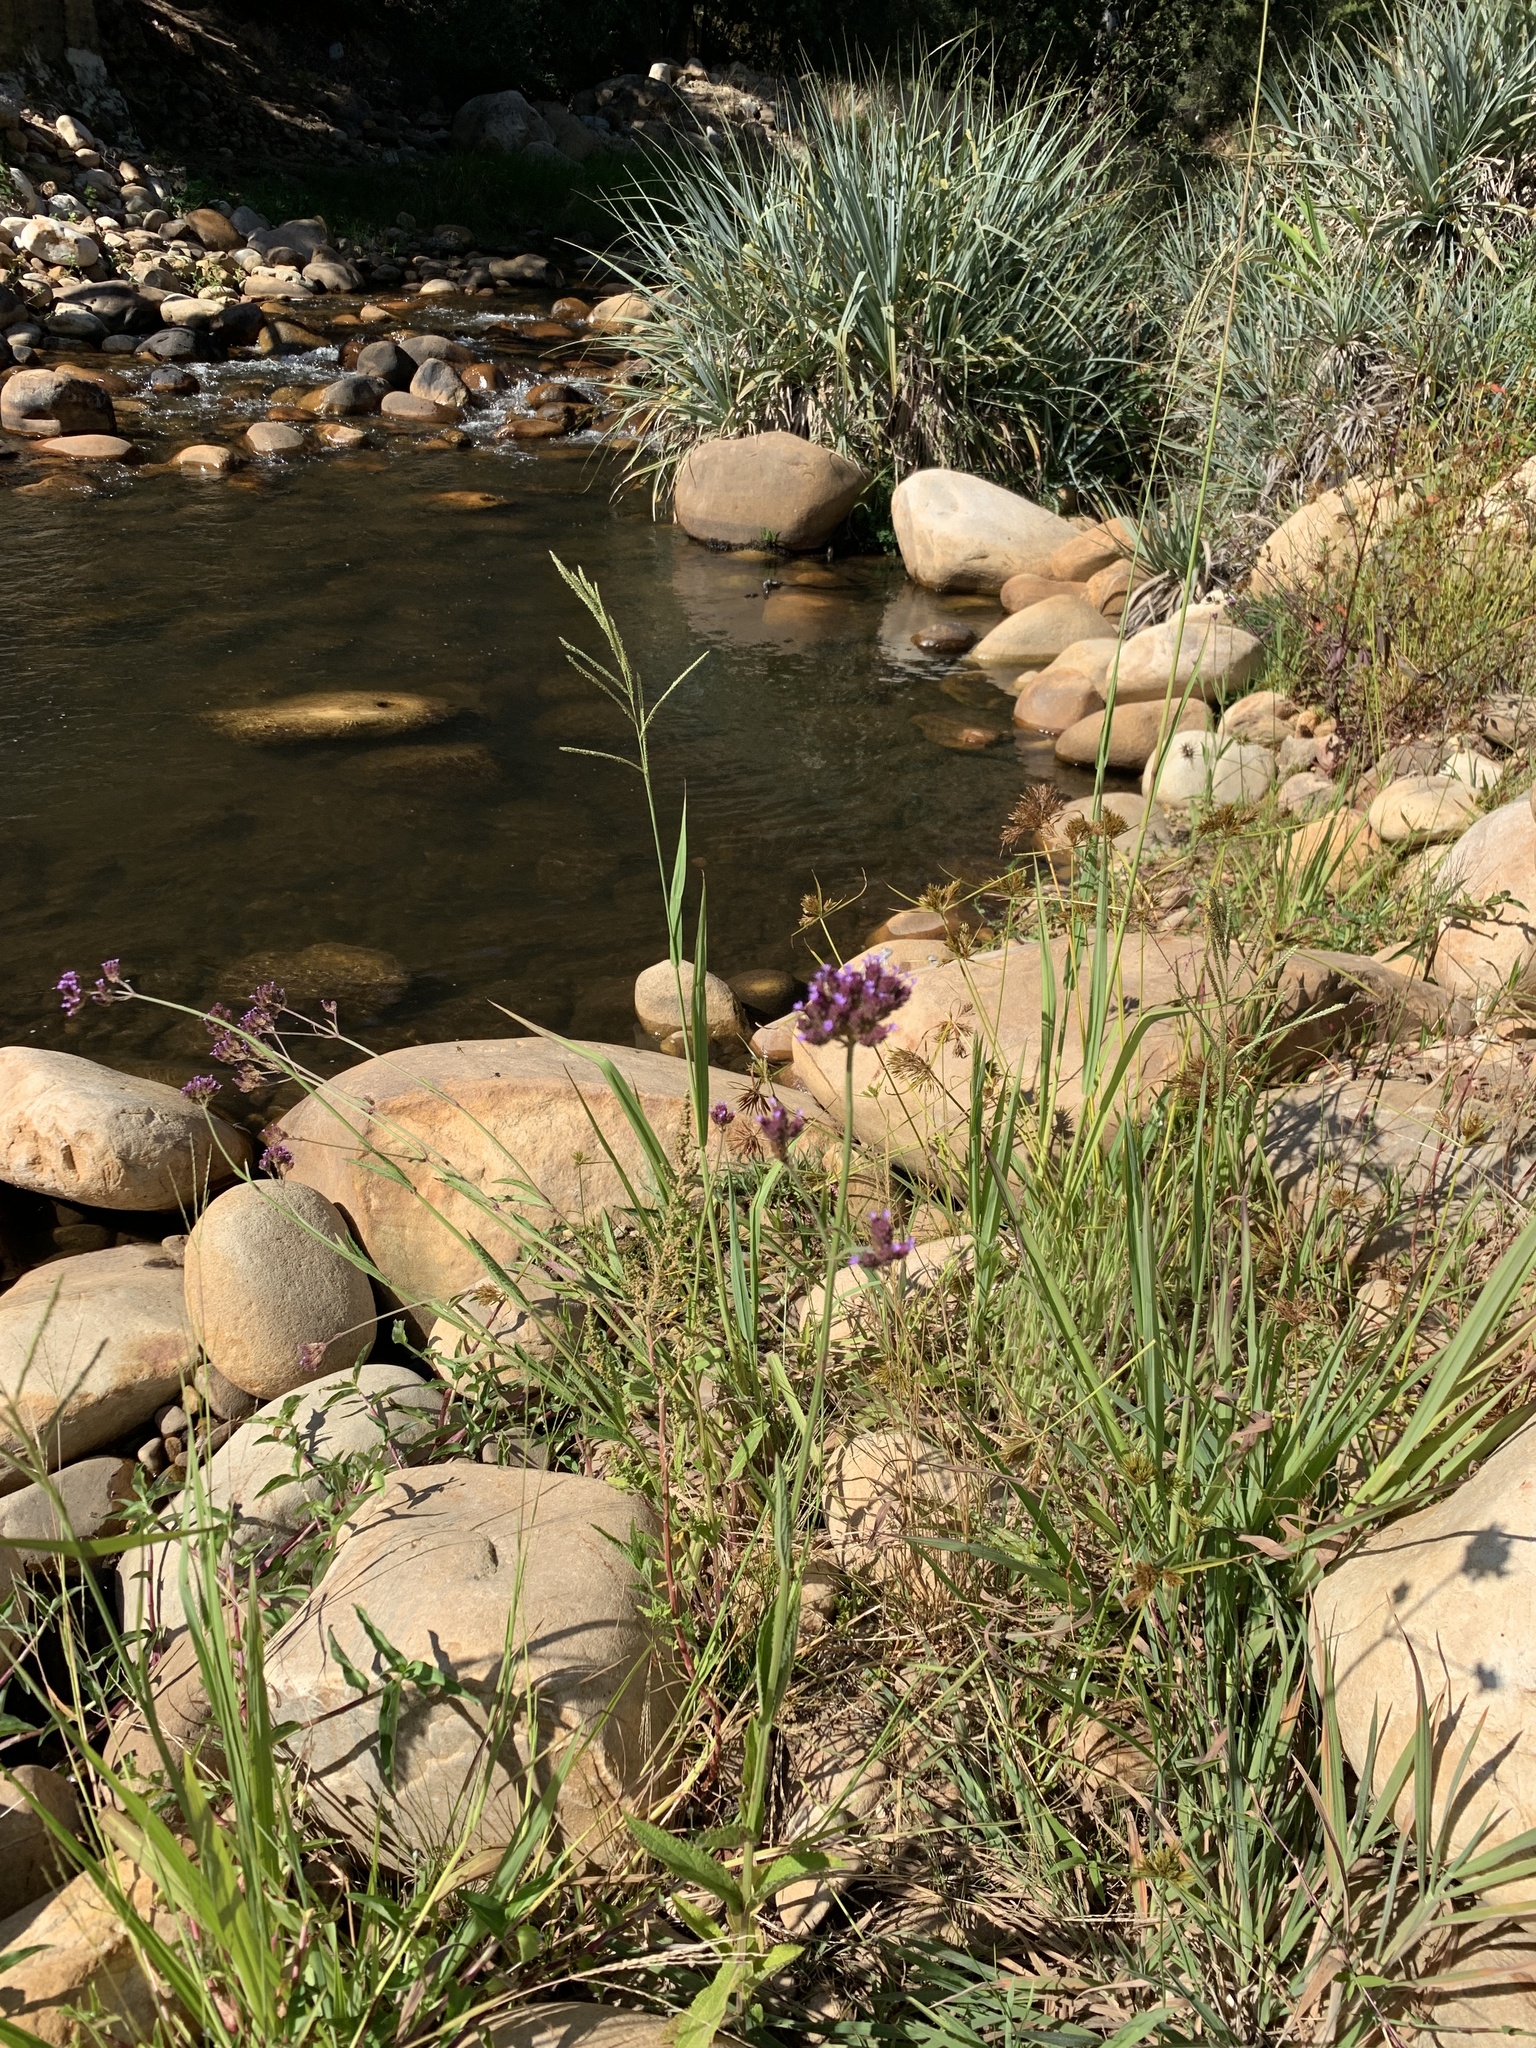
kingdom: Plantae
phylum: Tracheophyta
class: Magnoliopsida
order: Lamiales
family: Verbenaceae
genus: Verbena
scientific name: Verbena bonariensis
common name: Purpletop vervain
